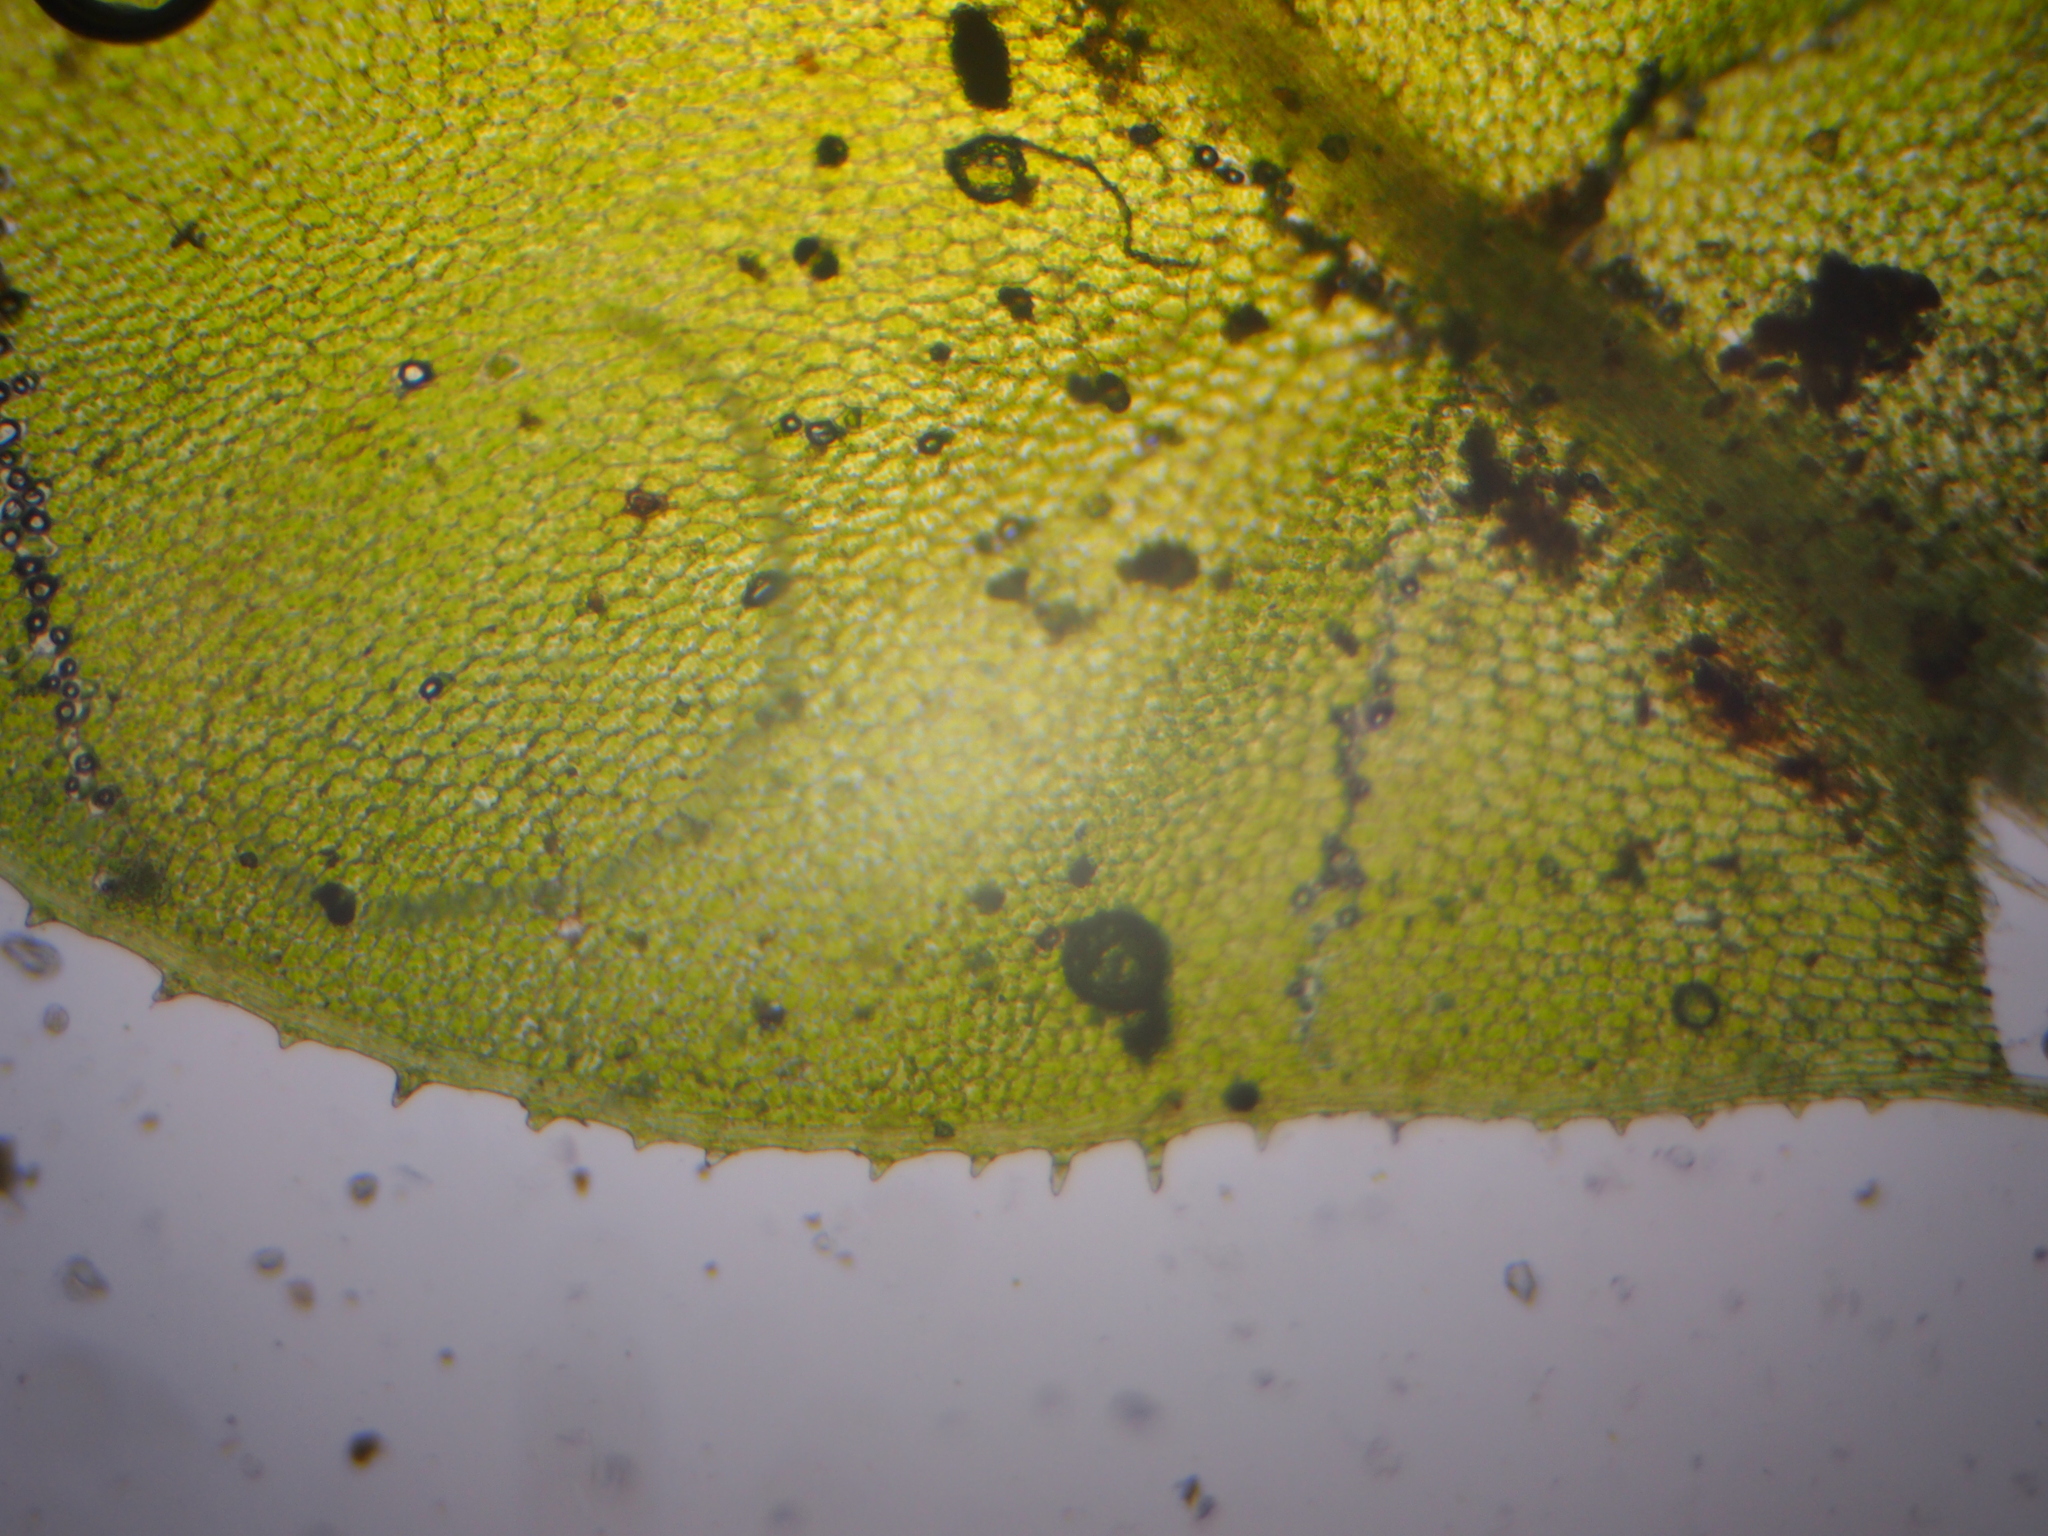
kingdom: Plantae
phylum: Bryophyta
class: Bryopsida
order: Bryales
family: Mniaceae
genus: Plagiomnium
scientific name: Plagiomnium affine
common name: Many-fruited thyme-moss
